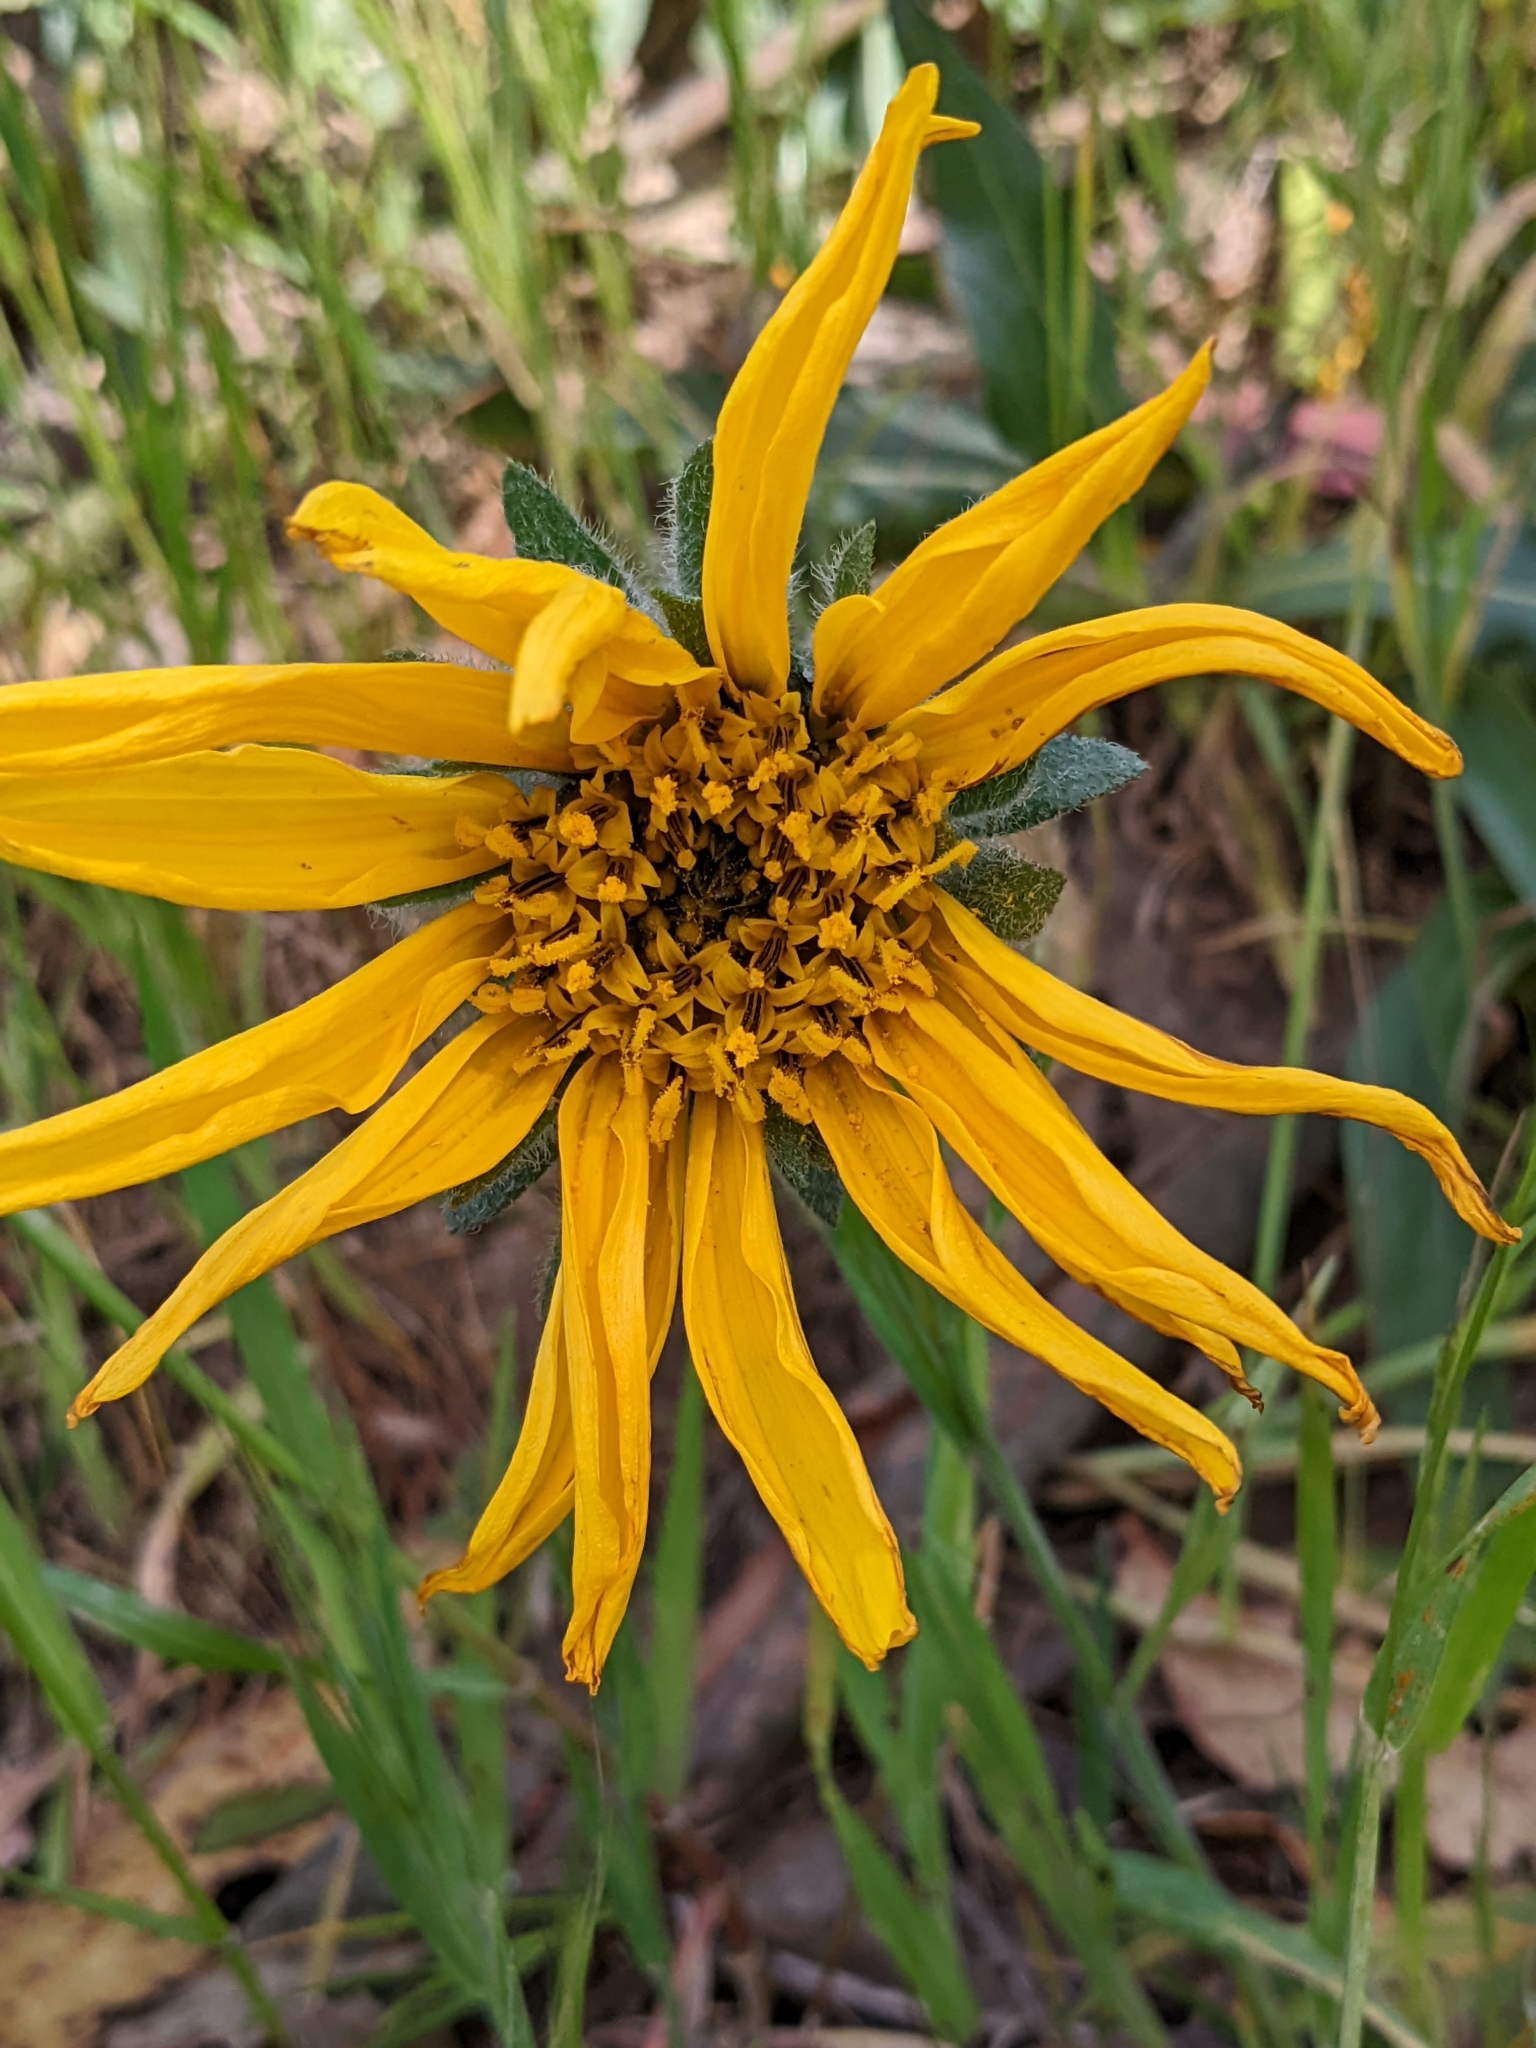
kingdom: Plantae
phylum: Tracheophyta
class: Magnoliopsida
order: Asterales
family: Asteraceae
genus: Wyethia
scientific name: Wyethia angustifolia
